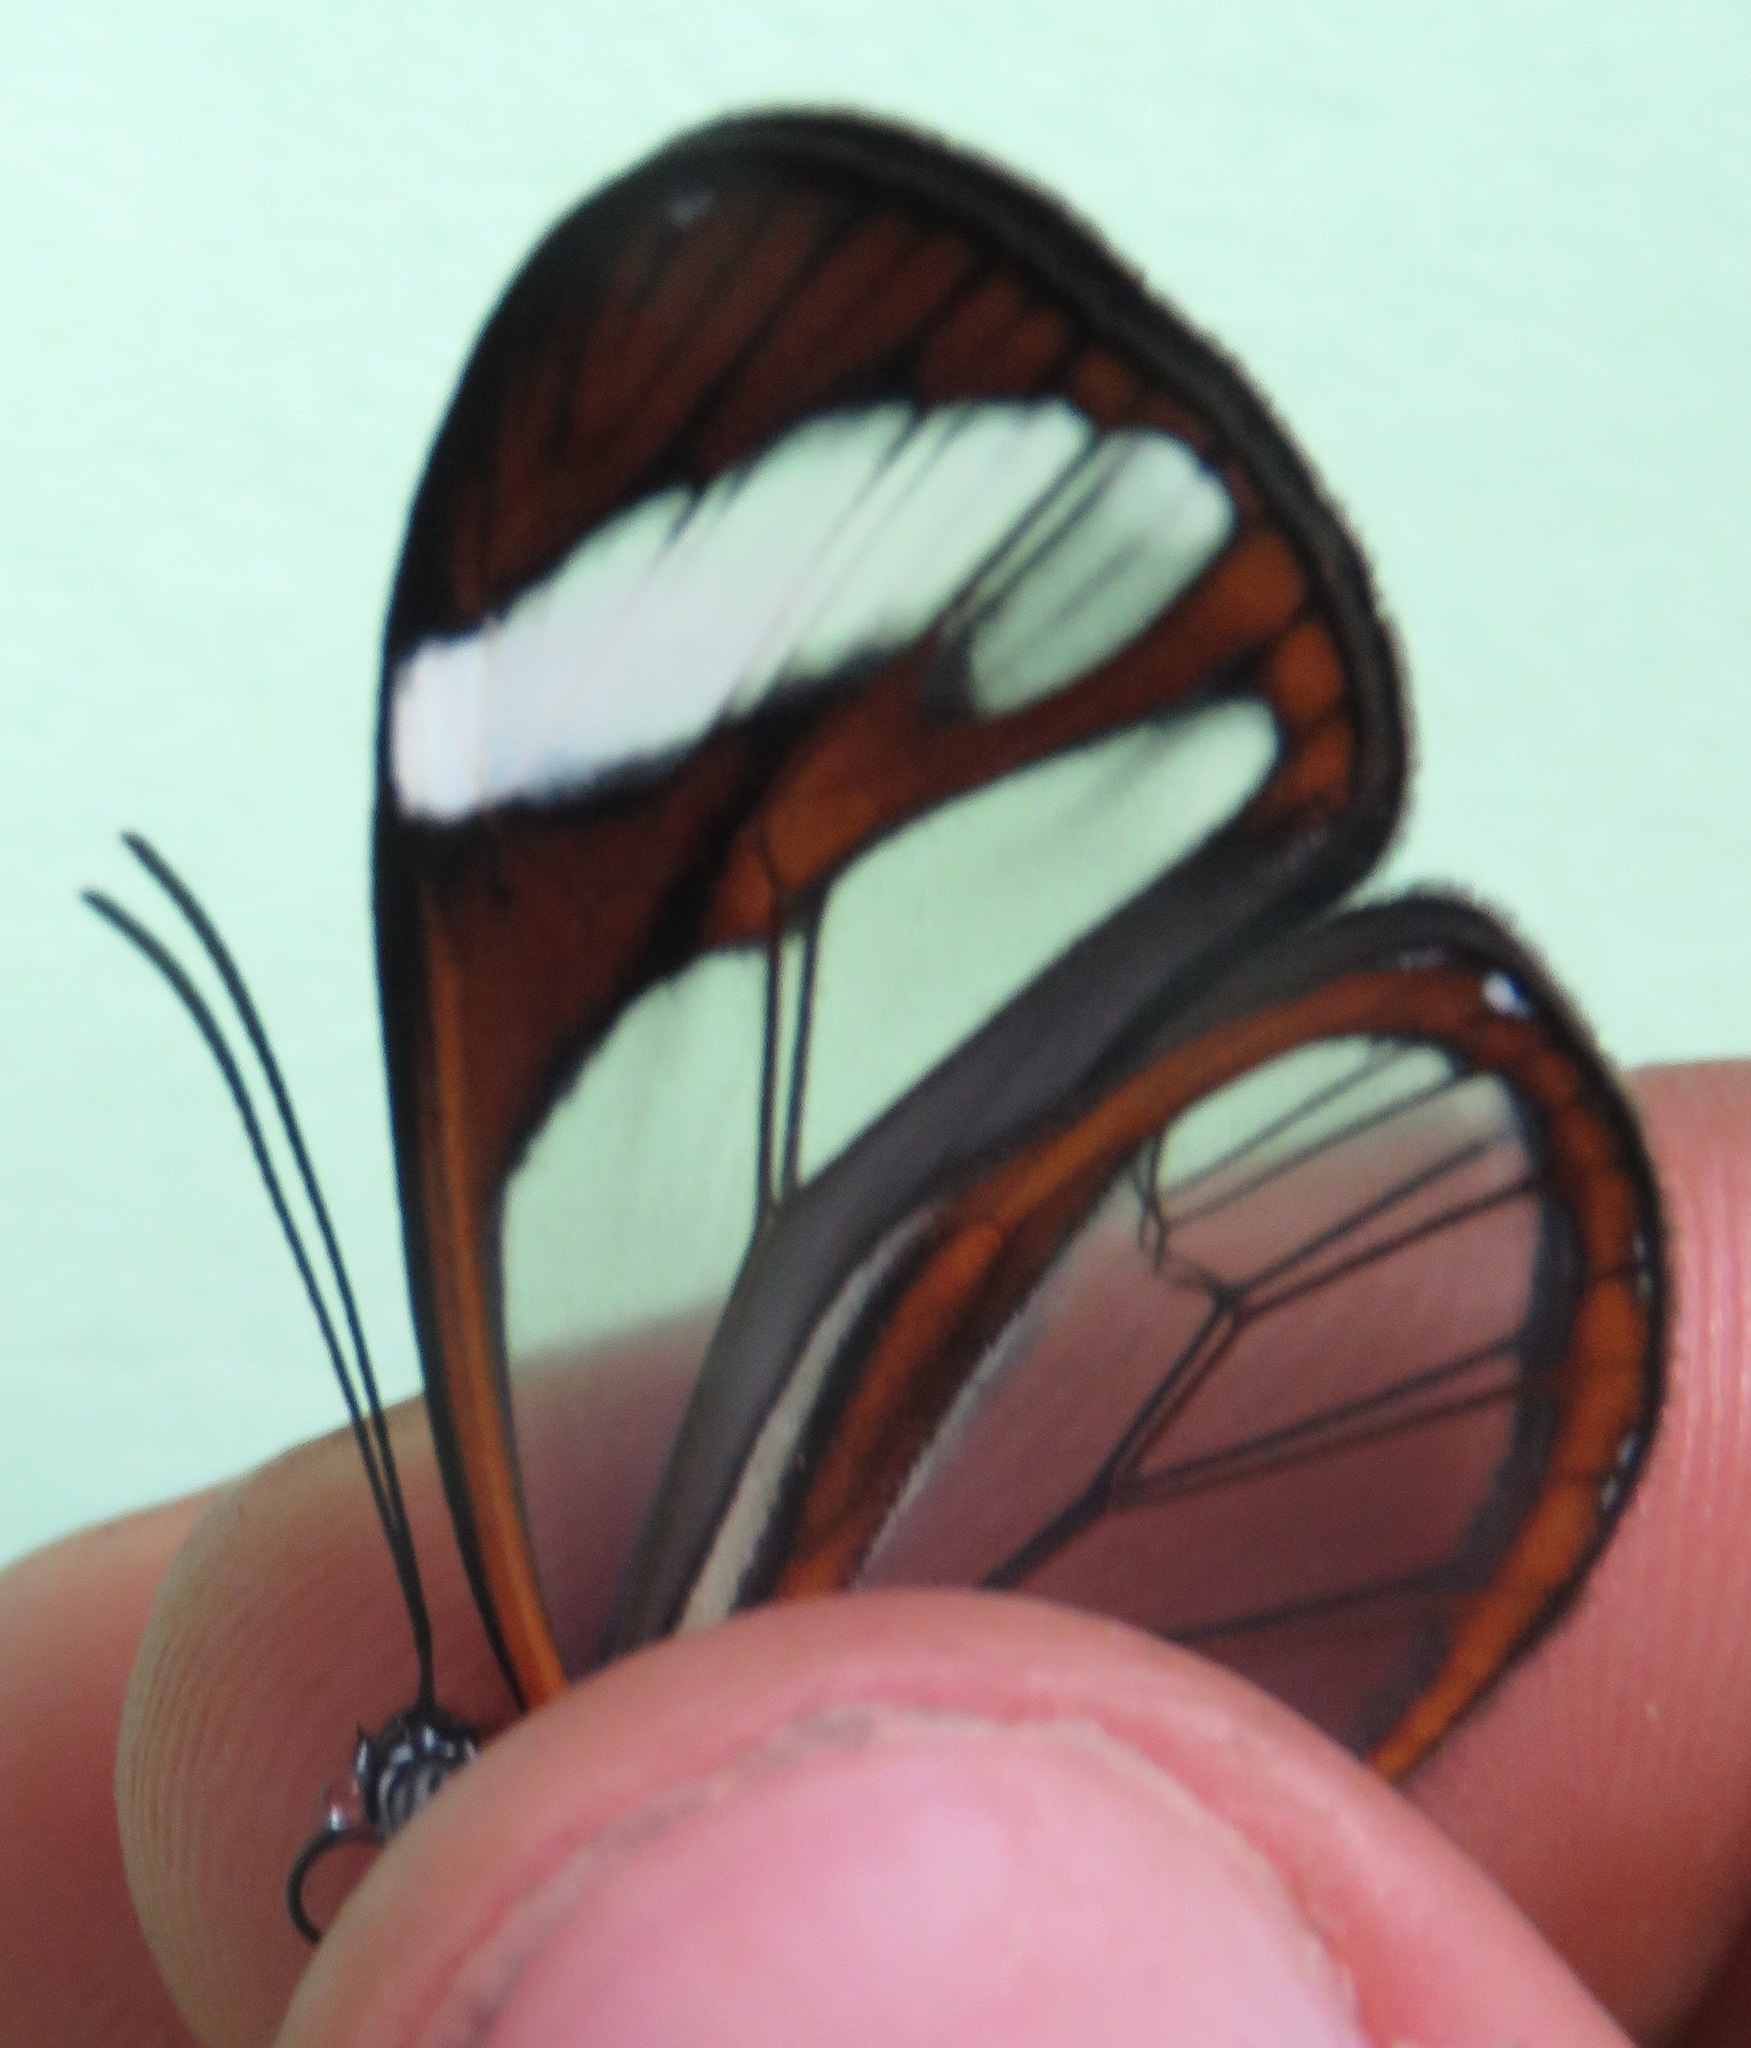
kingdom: Animalia
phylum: Arthropoda
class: Insecta
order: Lepidoptera
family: Nymphalidae
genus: Ithomia
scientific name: Ithomia patilla
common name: Patilla clearwing
